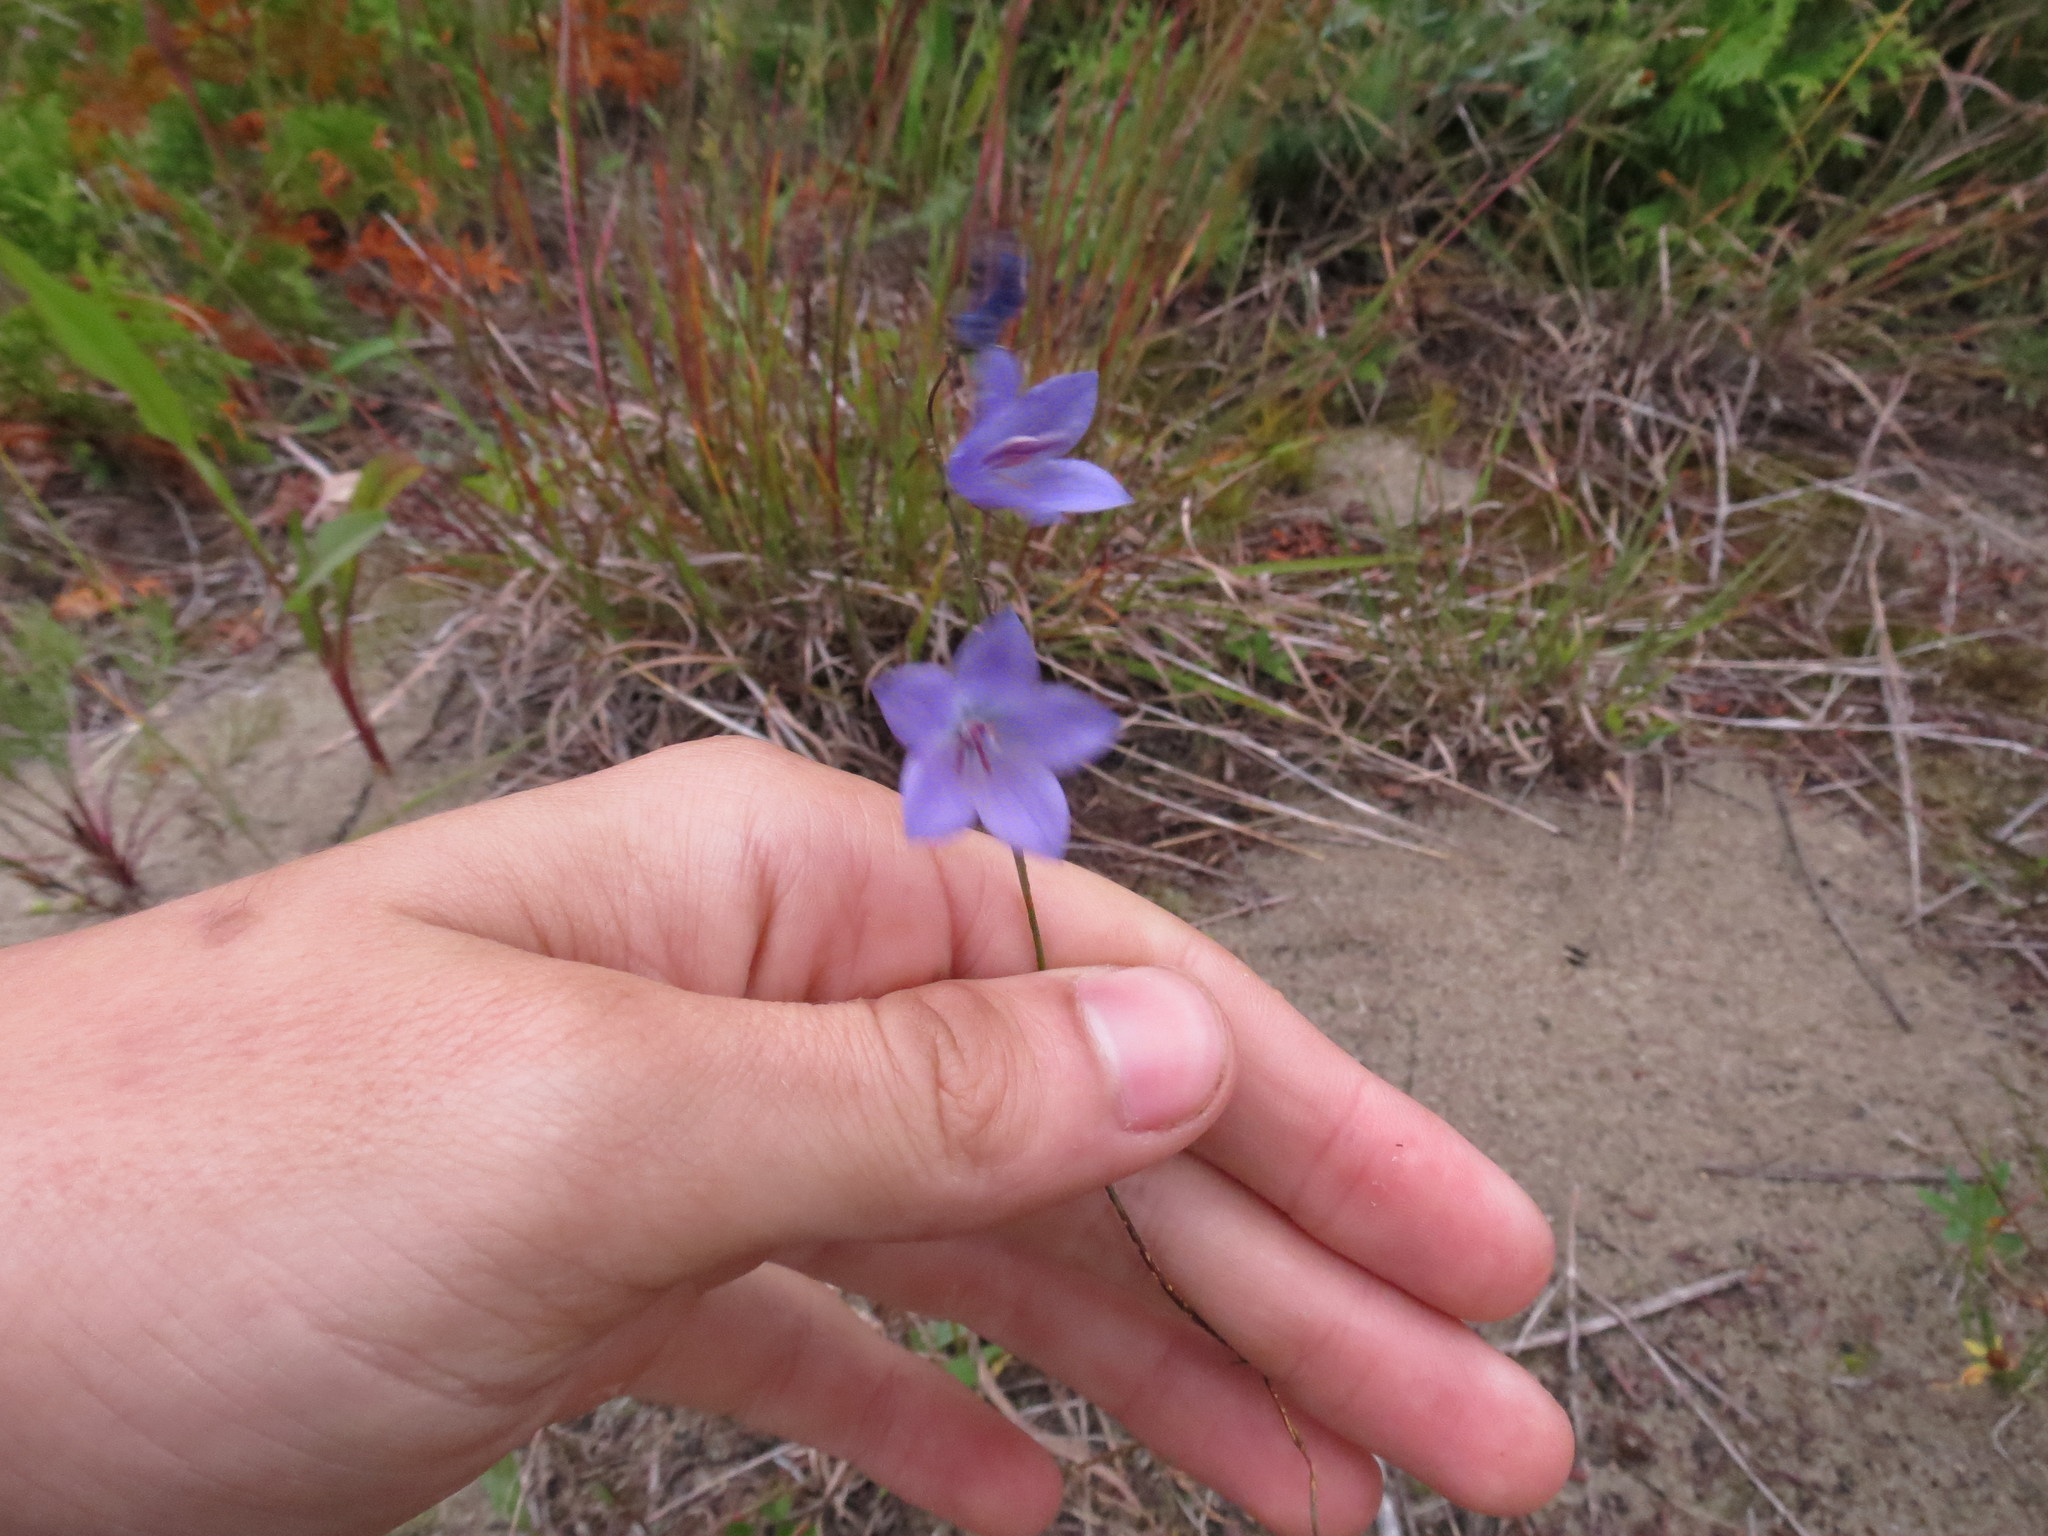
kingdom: Plantae
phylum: Tracheophyta
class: Magnoliopsida
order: Asterales
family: Campanulaceae
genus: Campanula
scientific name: Campanula giesekiana
